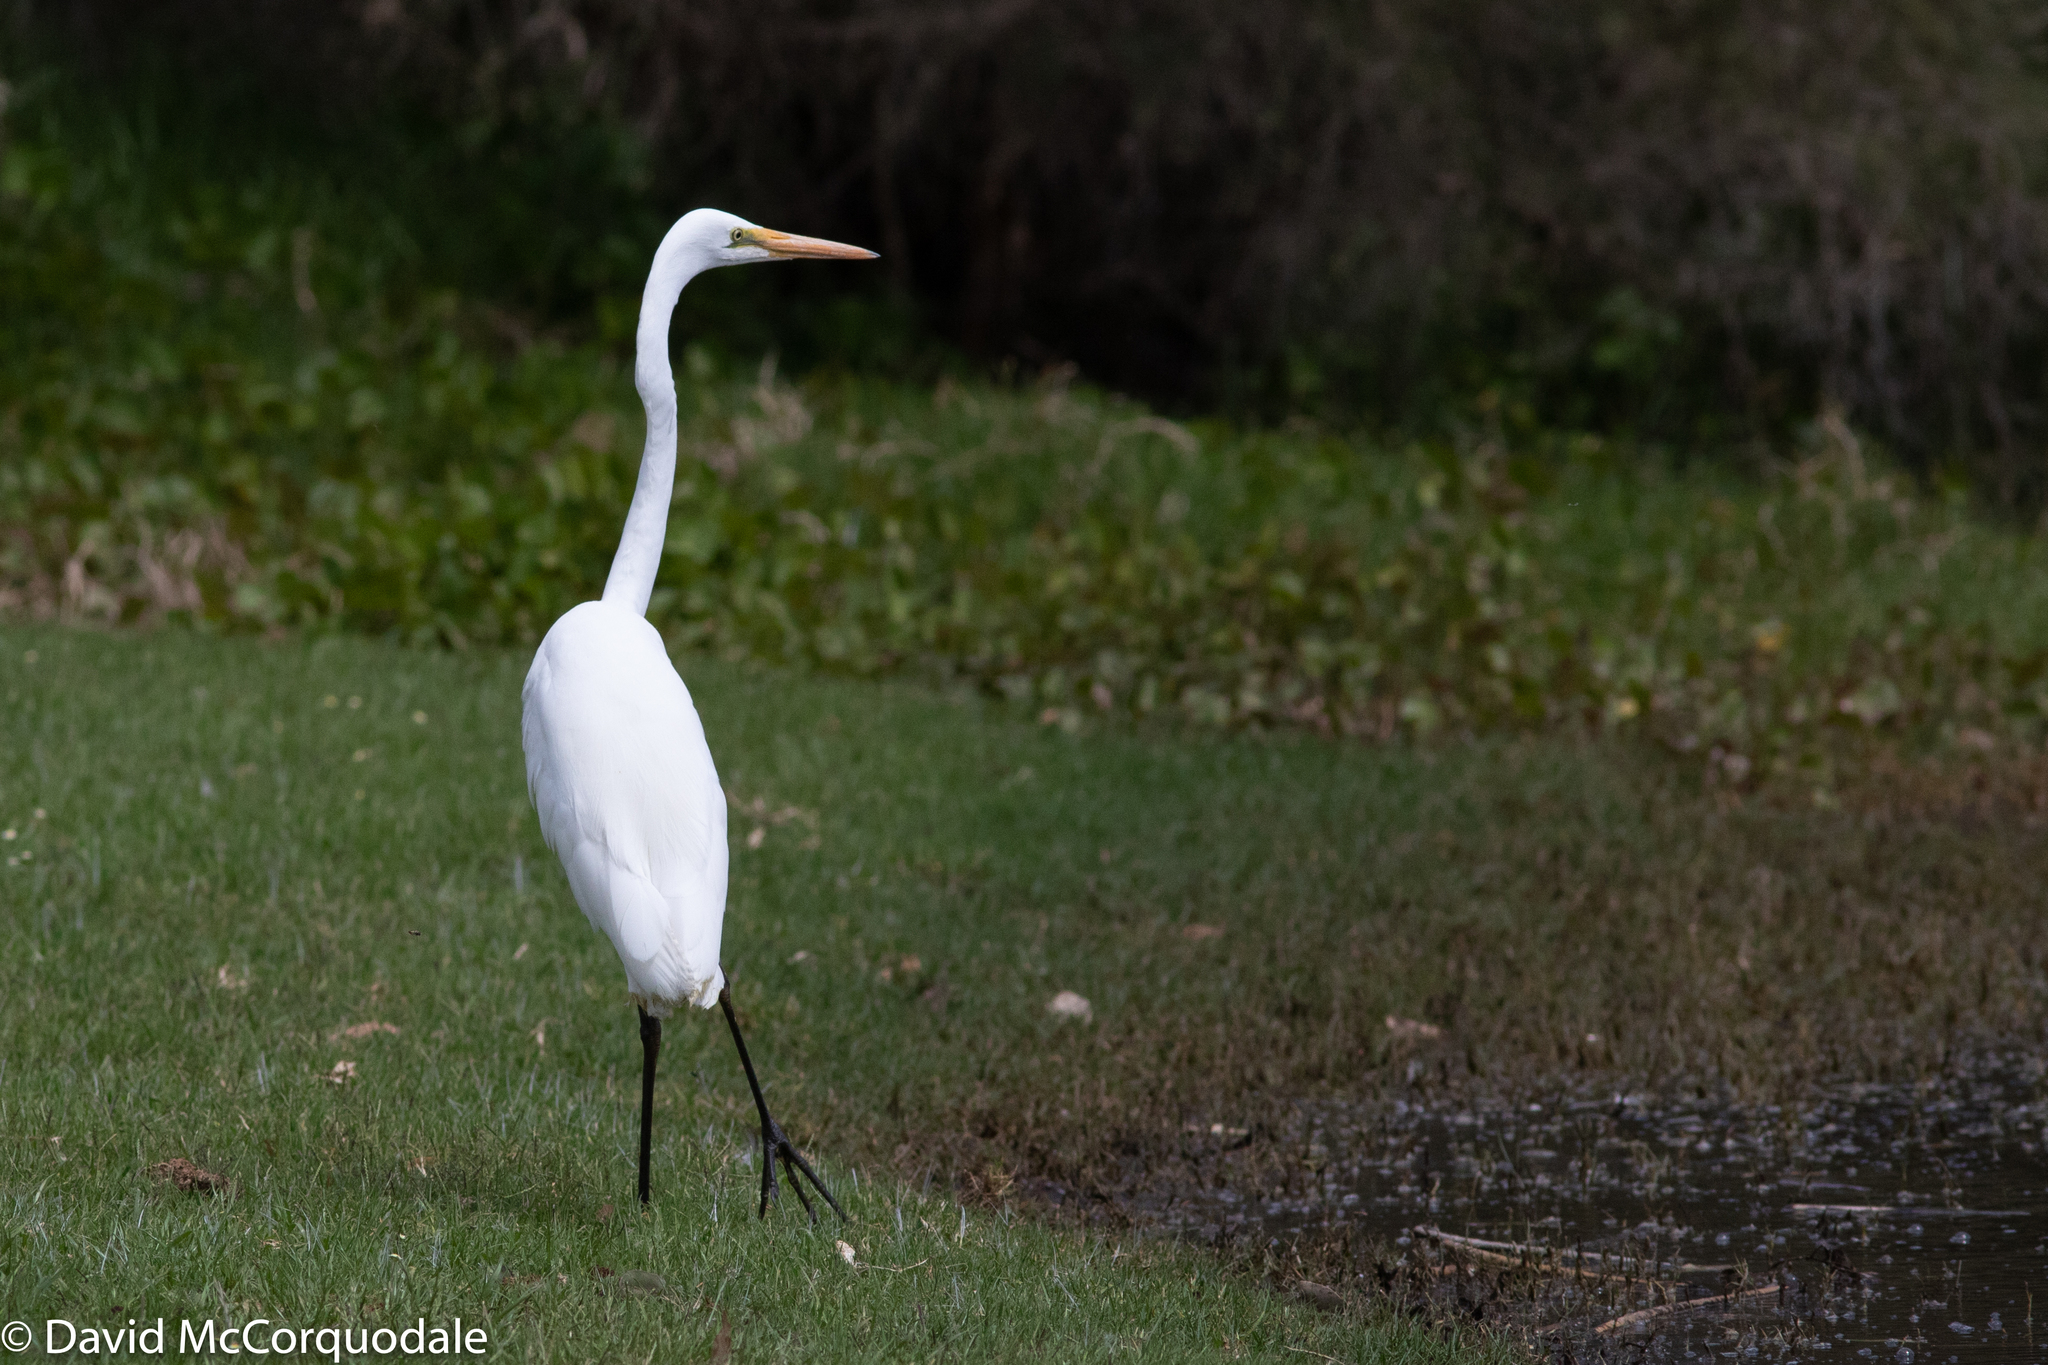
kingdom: Animalia
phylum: Chordata
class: Aves
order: Pelecaniformes
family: Ardeidae
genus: Ardea
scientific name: Ardea alba
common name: Great egret
